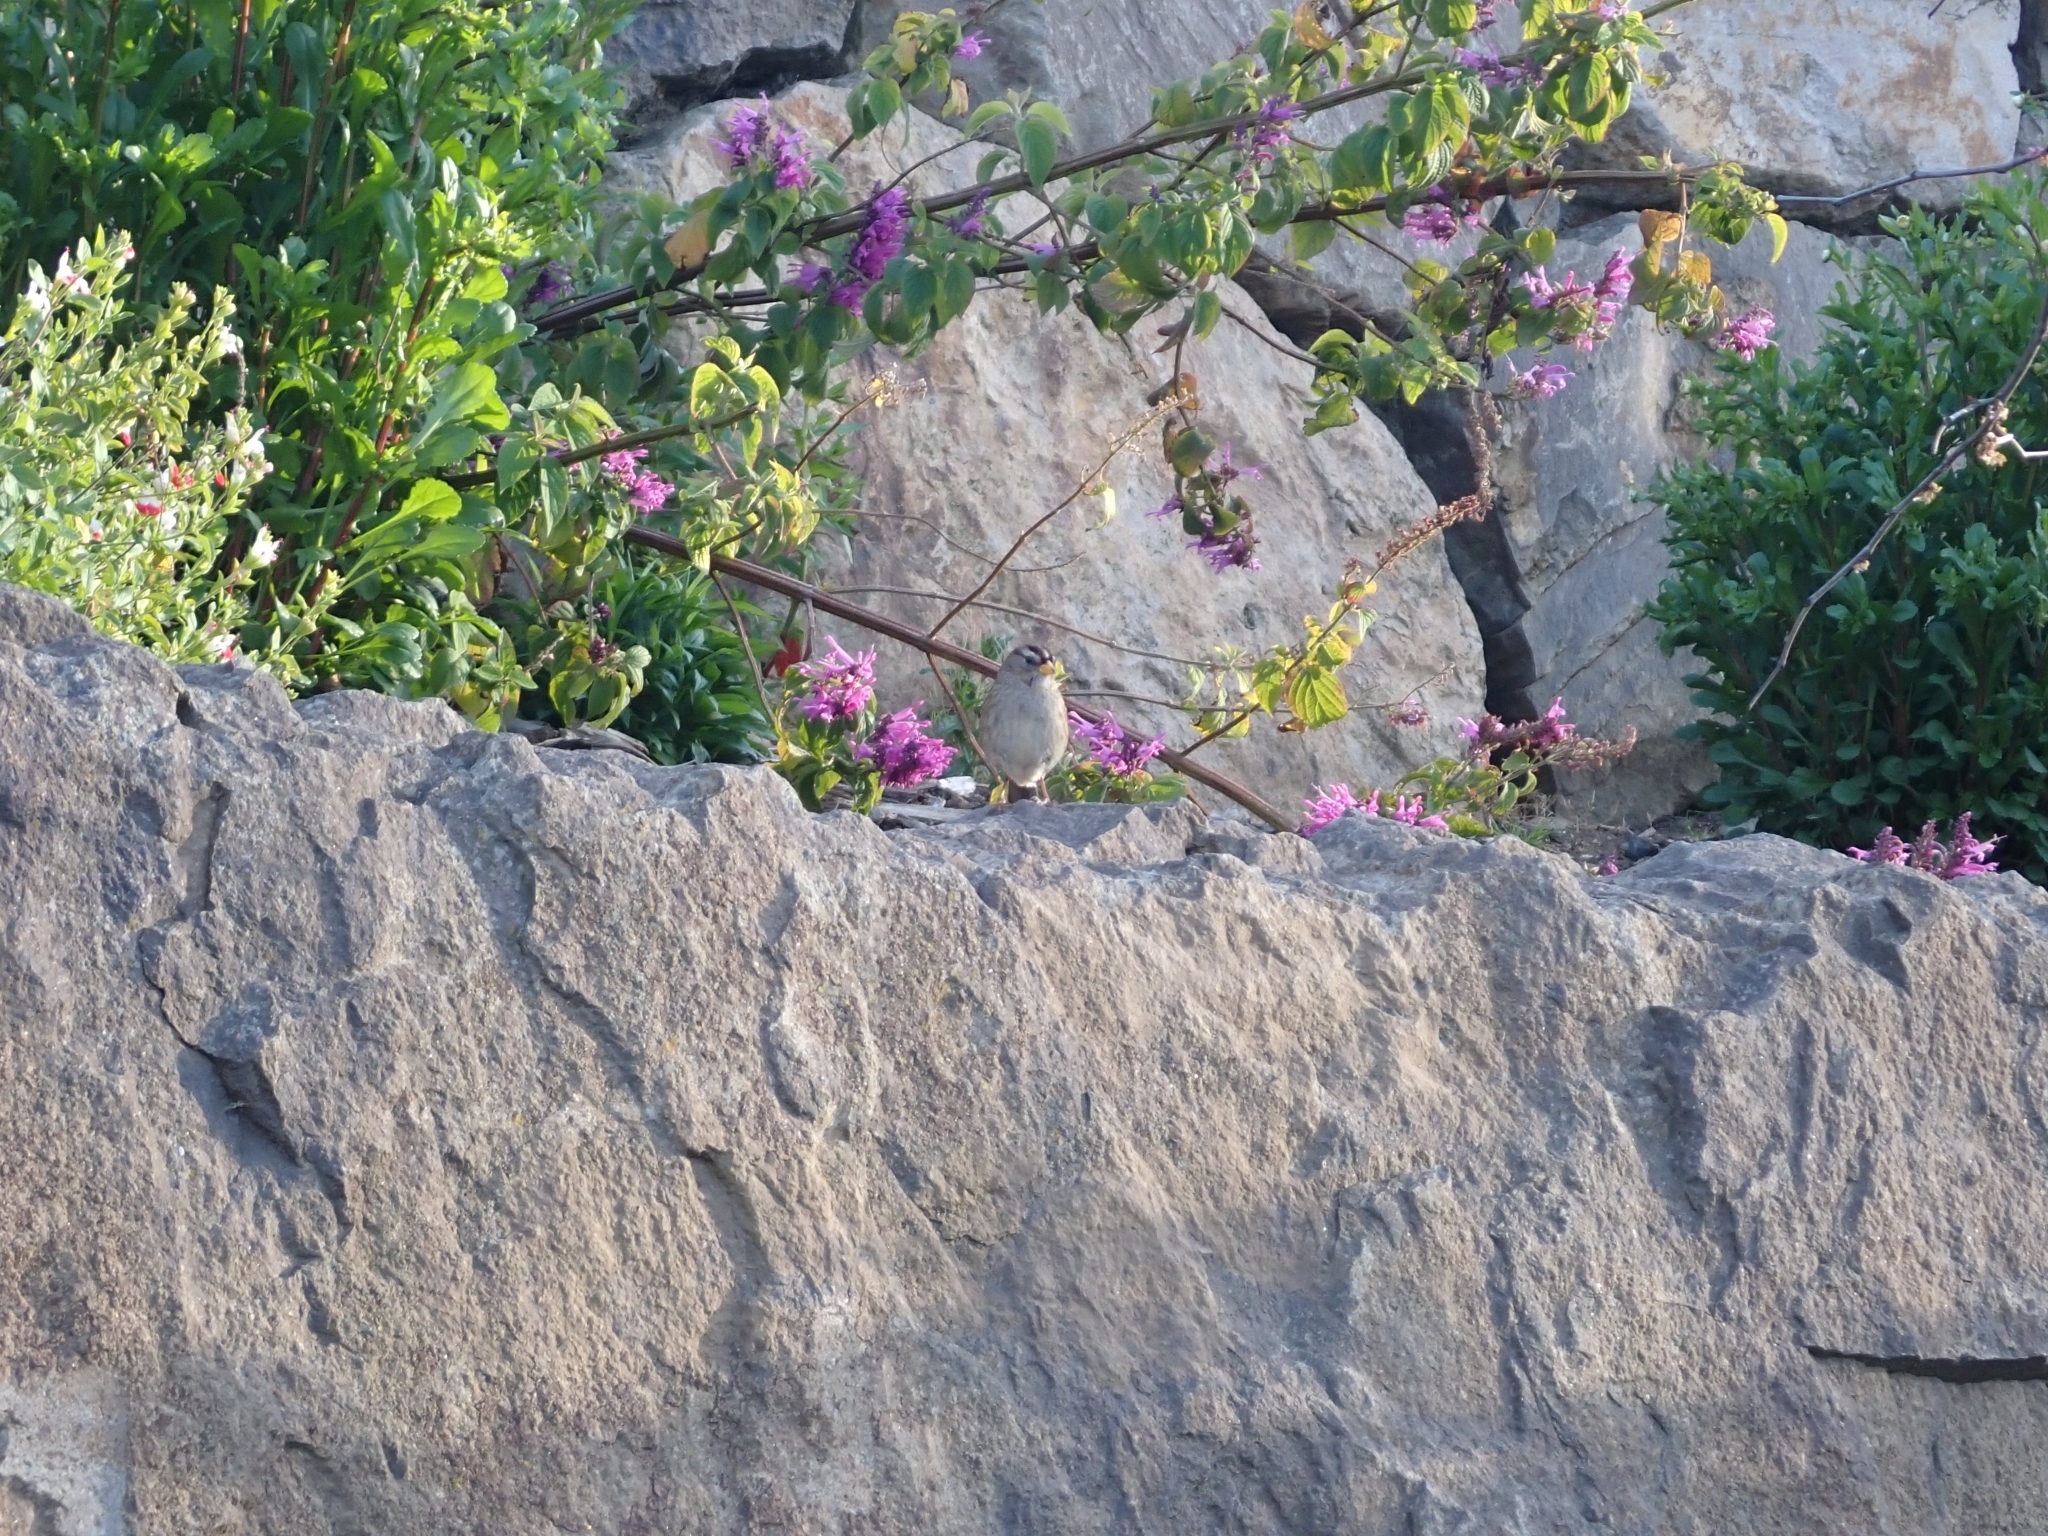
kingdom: Animalia
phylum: Chordata
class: Aves
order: Passeriformes
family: Passerellidae
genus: Zonotrichia
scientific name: Zonotrichia leucophrys
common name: White-crowned sparrow
